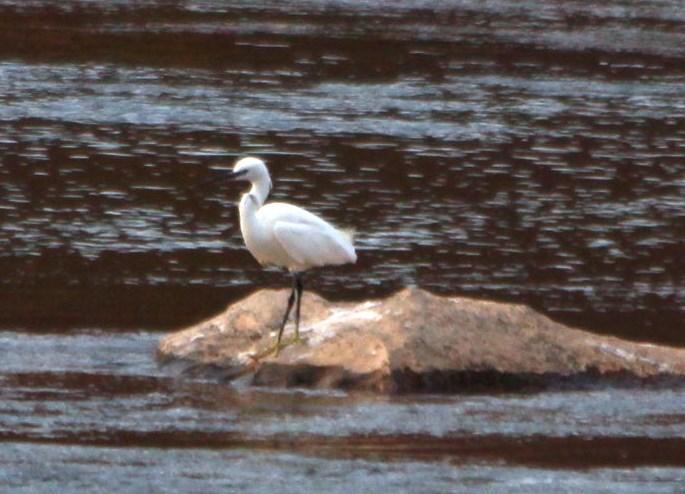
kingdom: Animalia
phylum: Chordata
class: Aves
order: Pelecaniformes
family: Ardeidae
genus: Egretta
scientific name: Egretta garzetta
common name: Little egret
